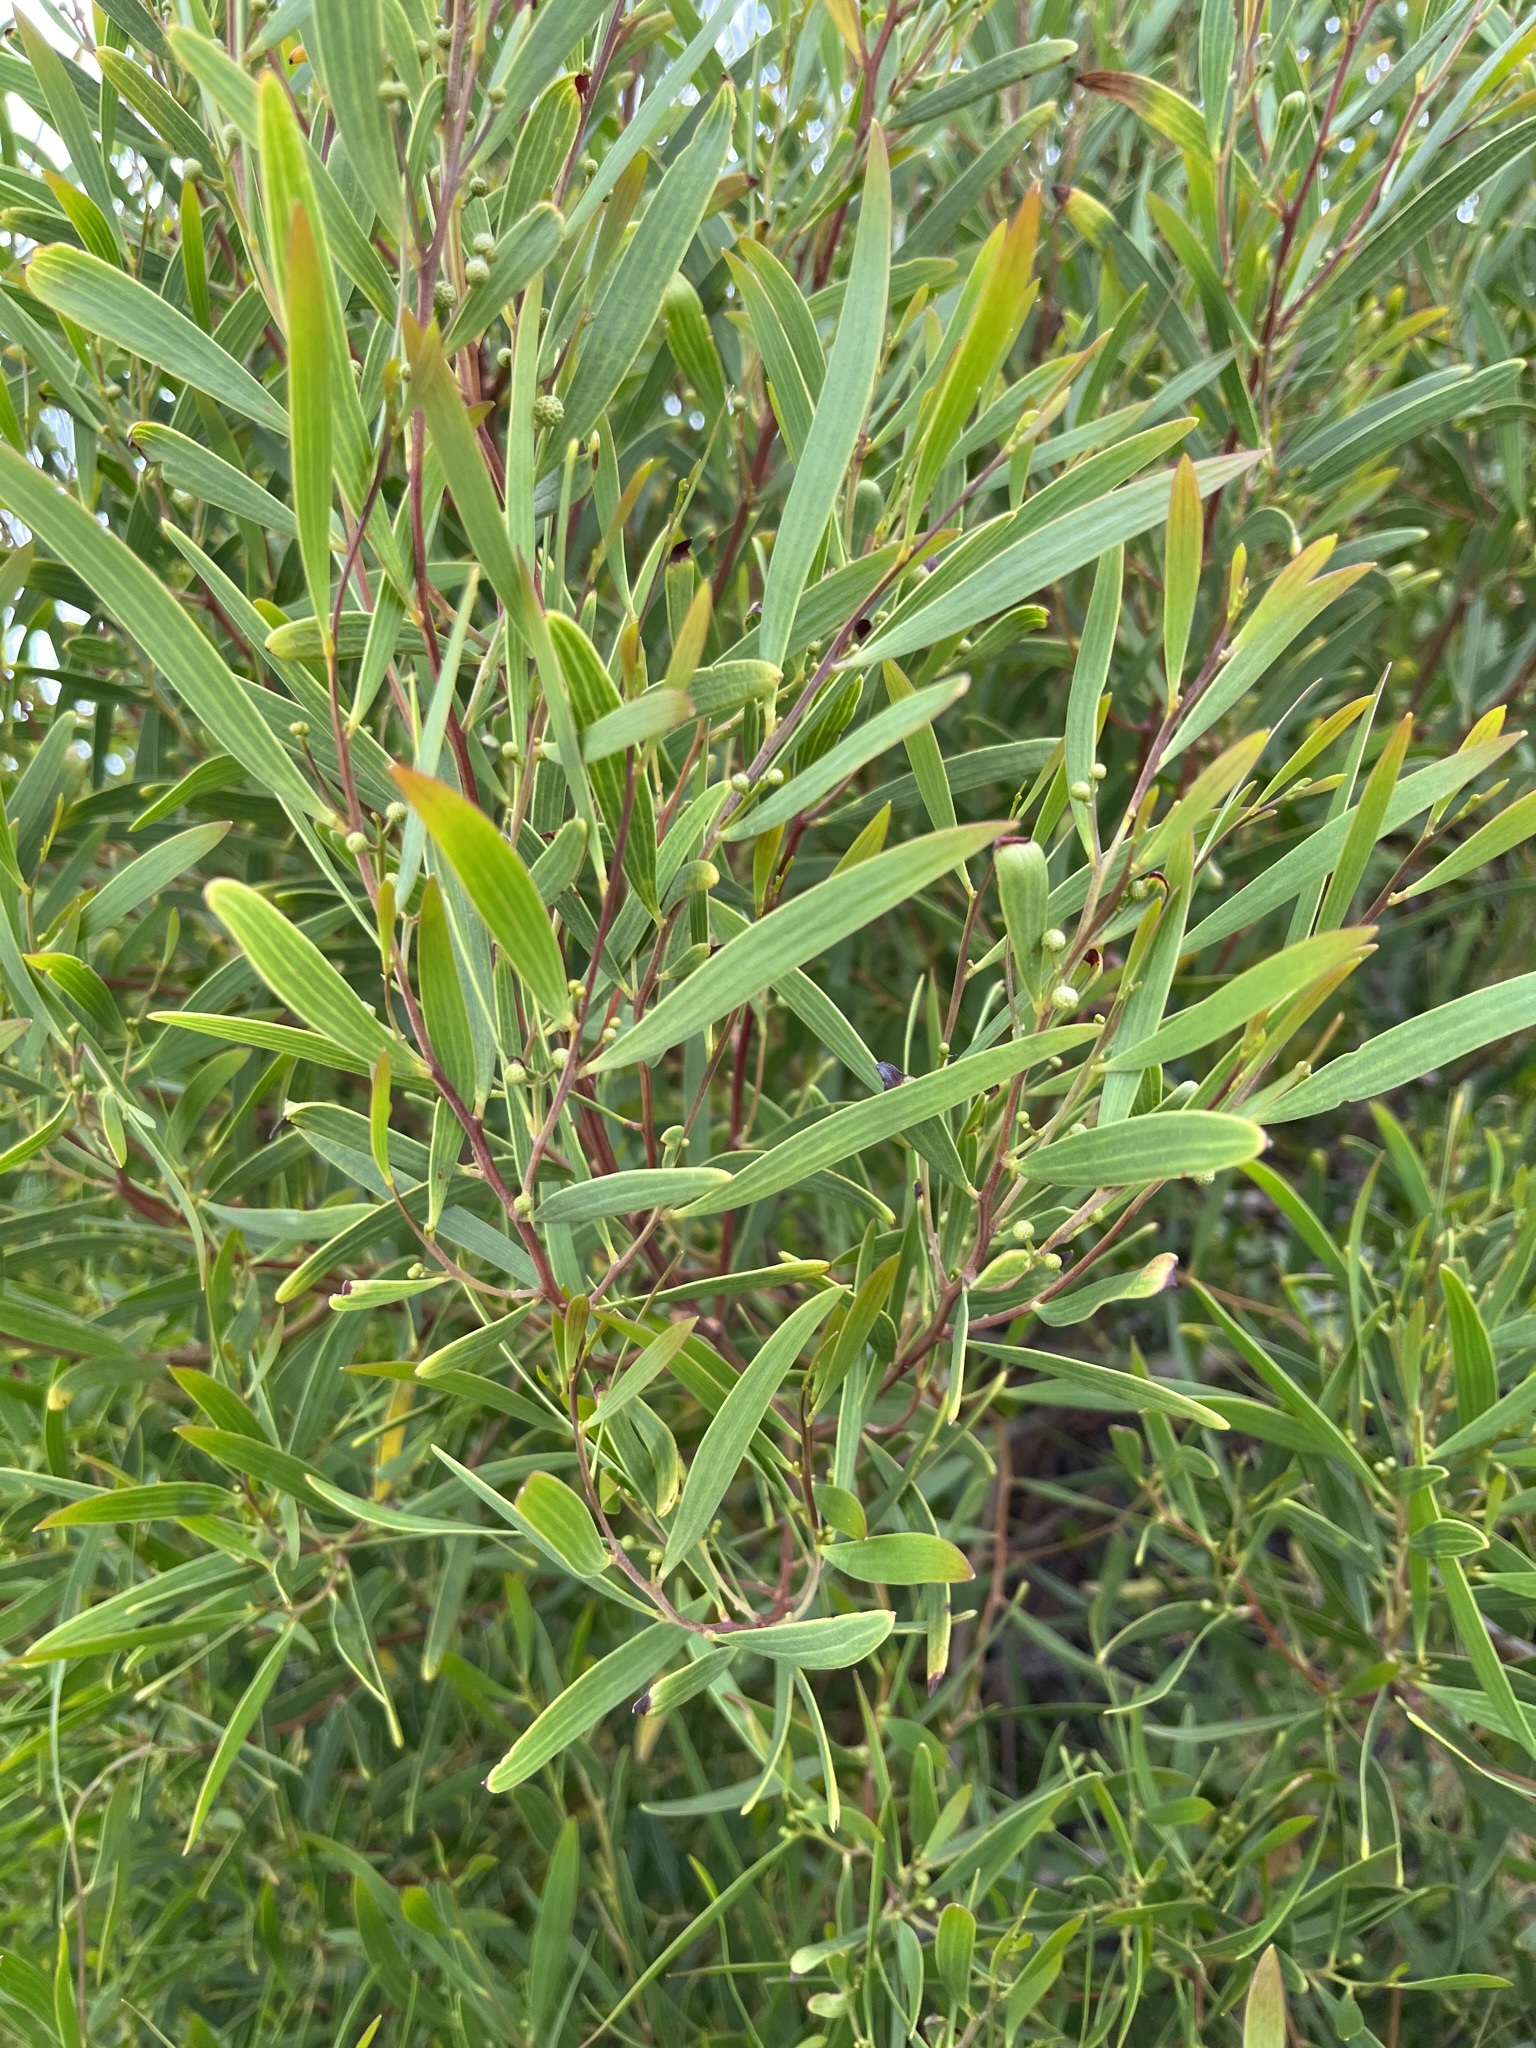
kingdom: Plantae
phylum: Tracheophyta
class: Magnoliopsida
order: Fabales
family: Fabaceae
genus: Acacia
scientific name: Acacia cyclops
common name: Coastal wattle
